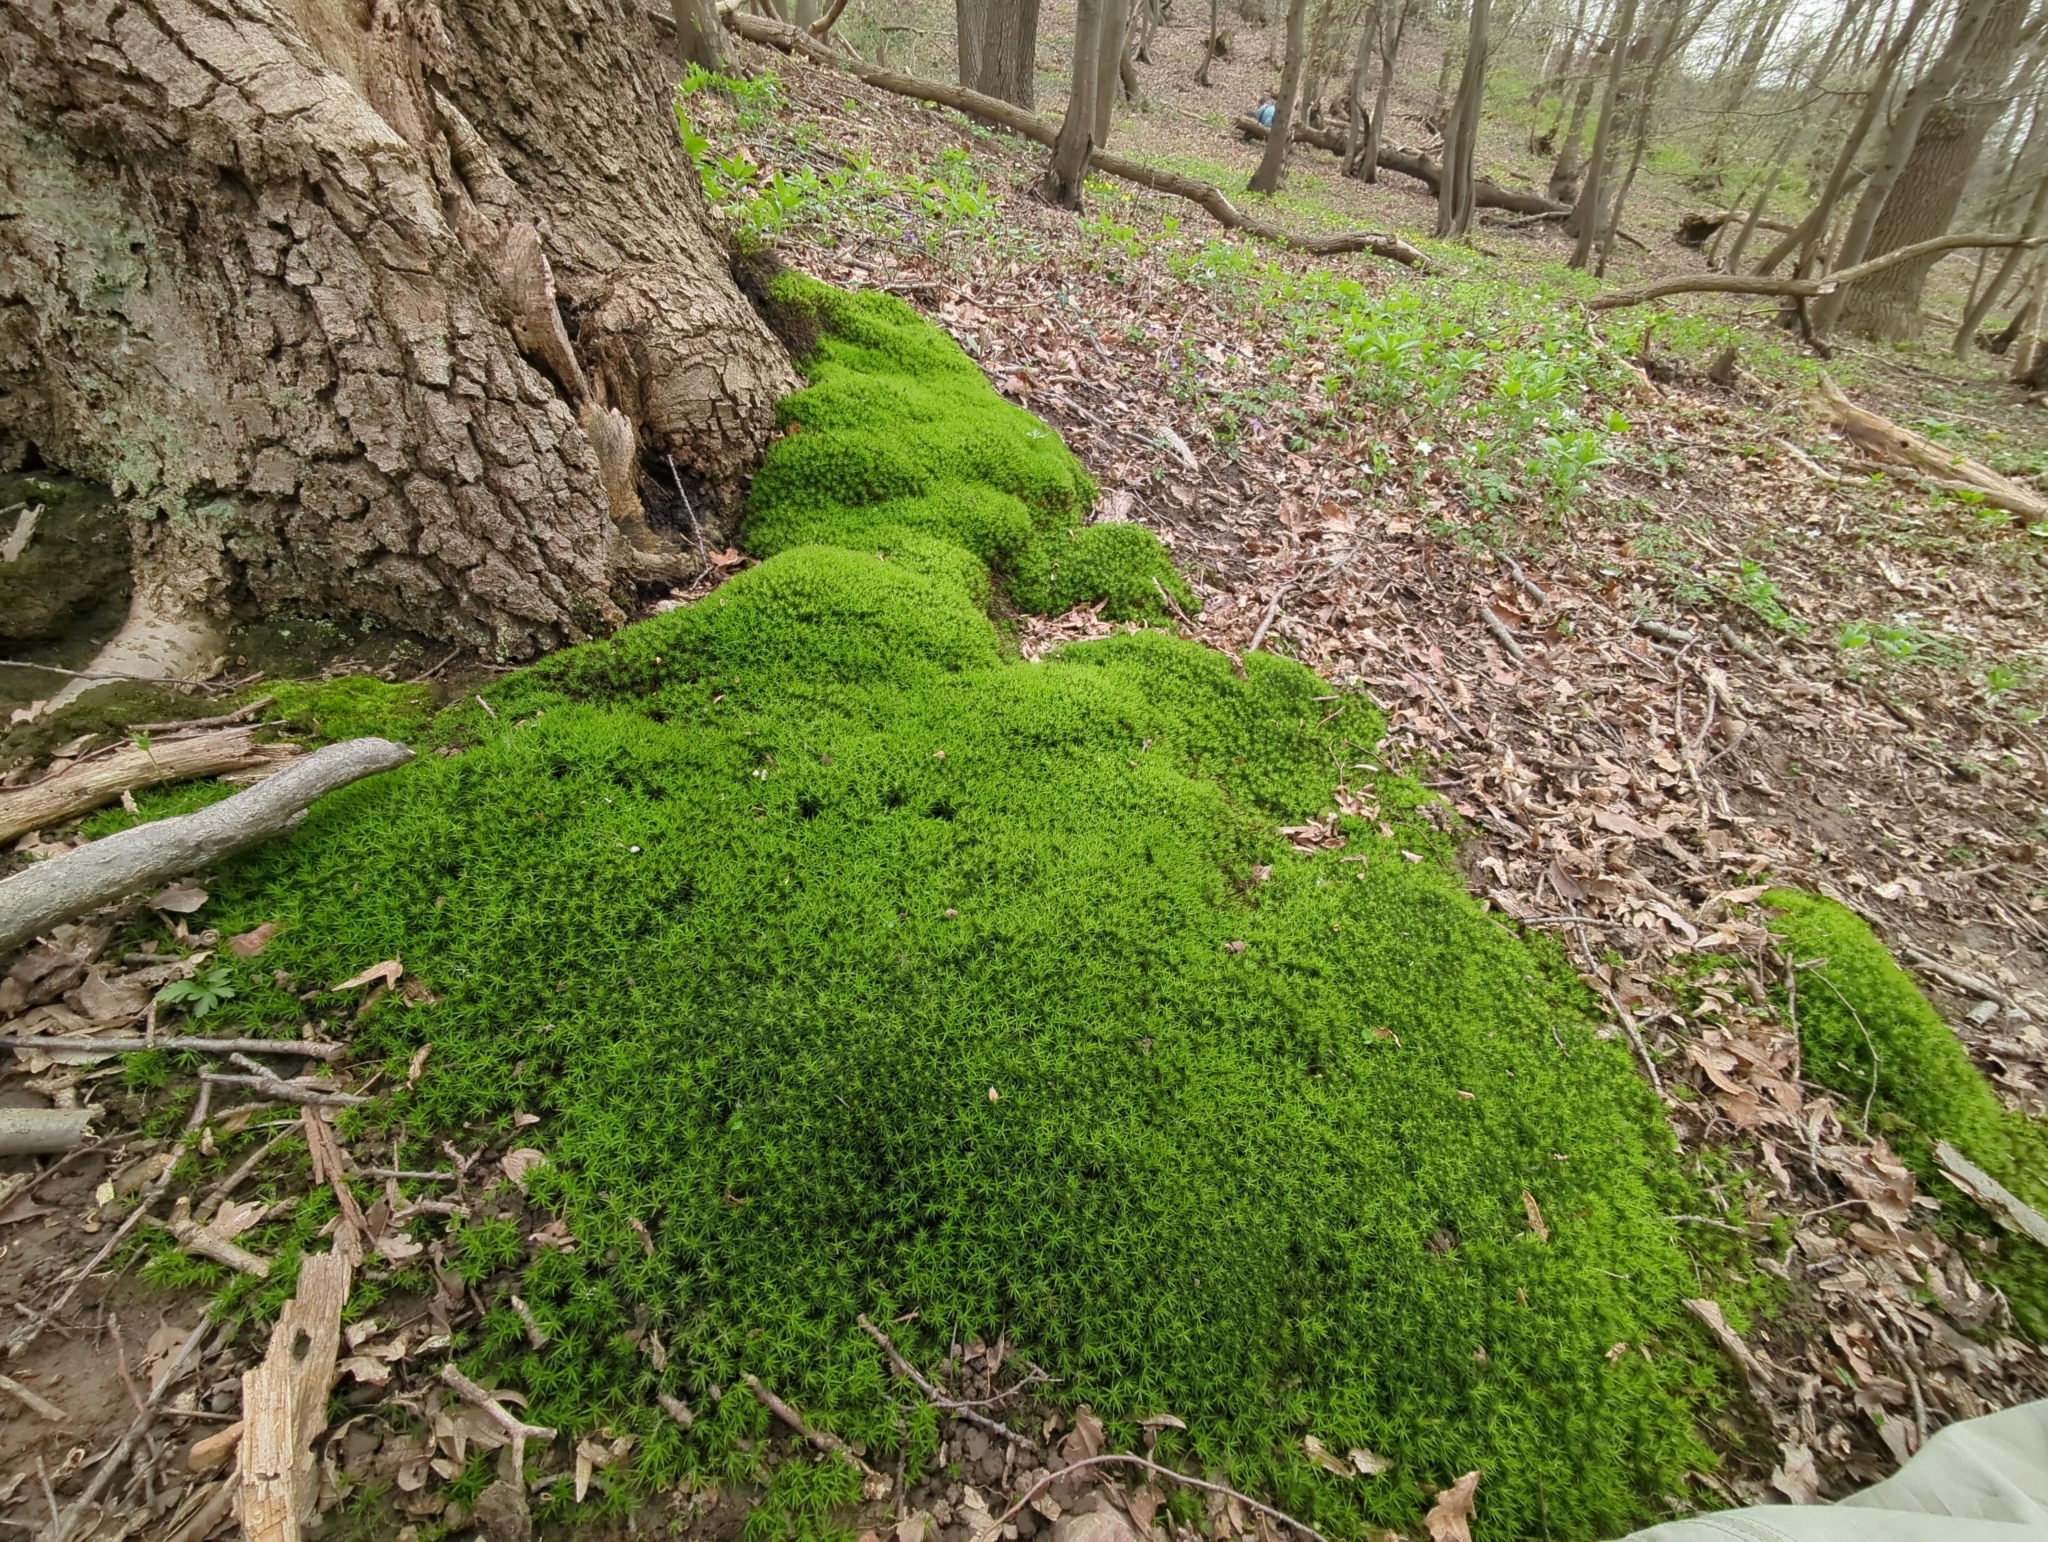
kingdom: Plantae
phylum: Bryophyta
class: Polytrichopsida
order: Polytrichales
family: Polytrichaceae
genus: Polytrichum
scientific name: Polytrichum formosum
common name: Bank haircap moss
